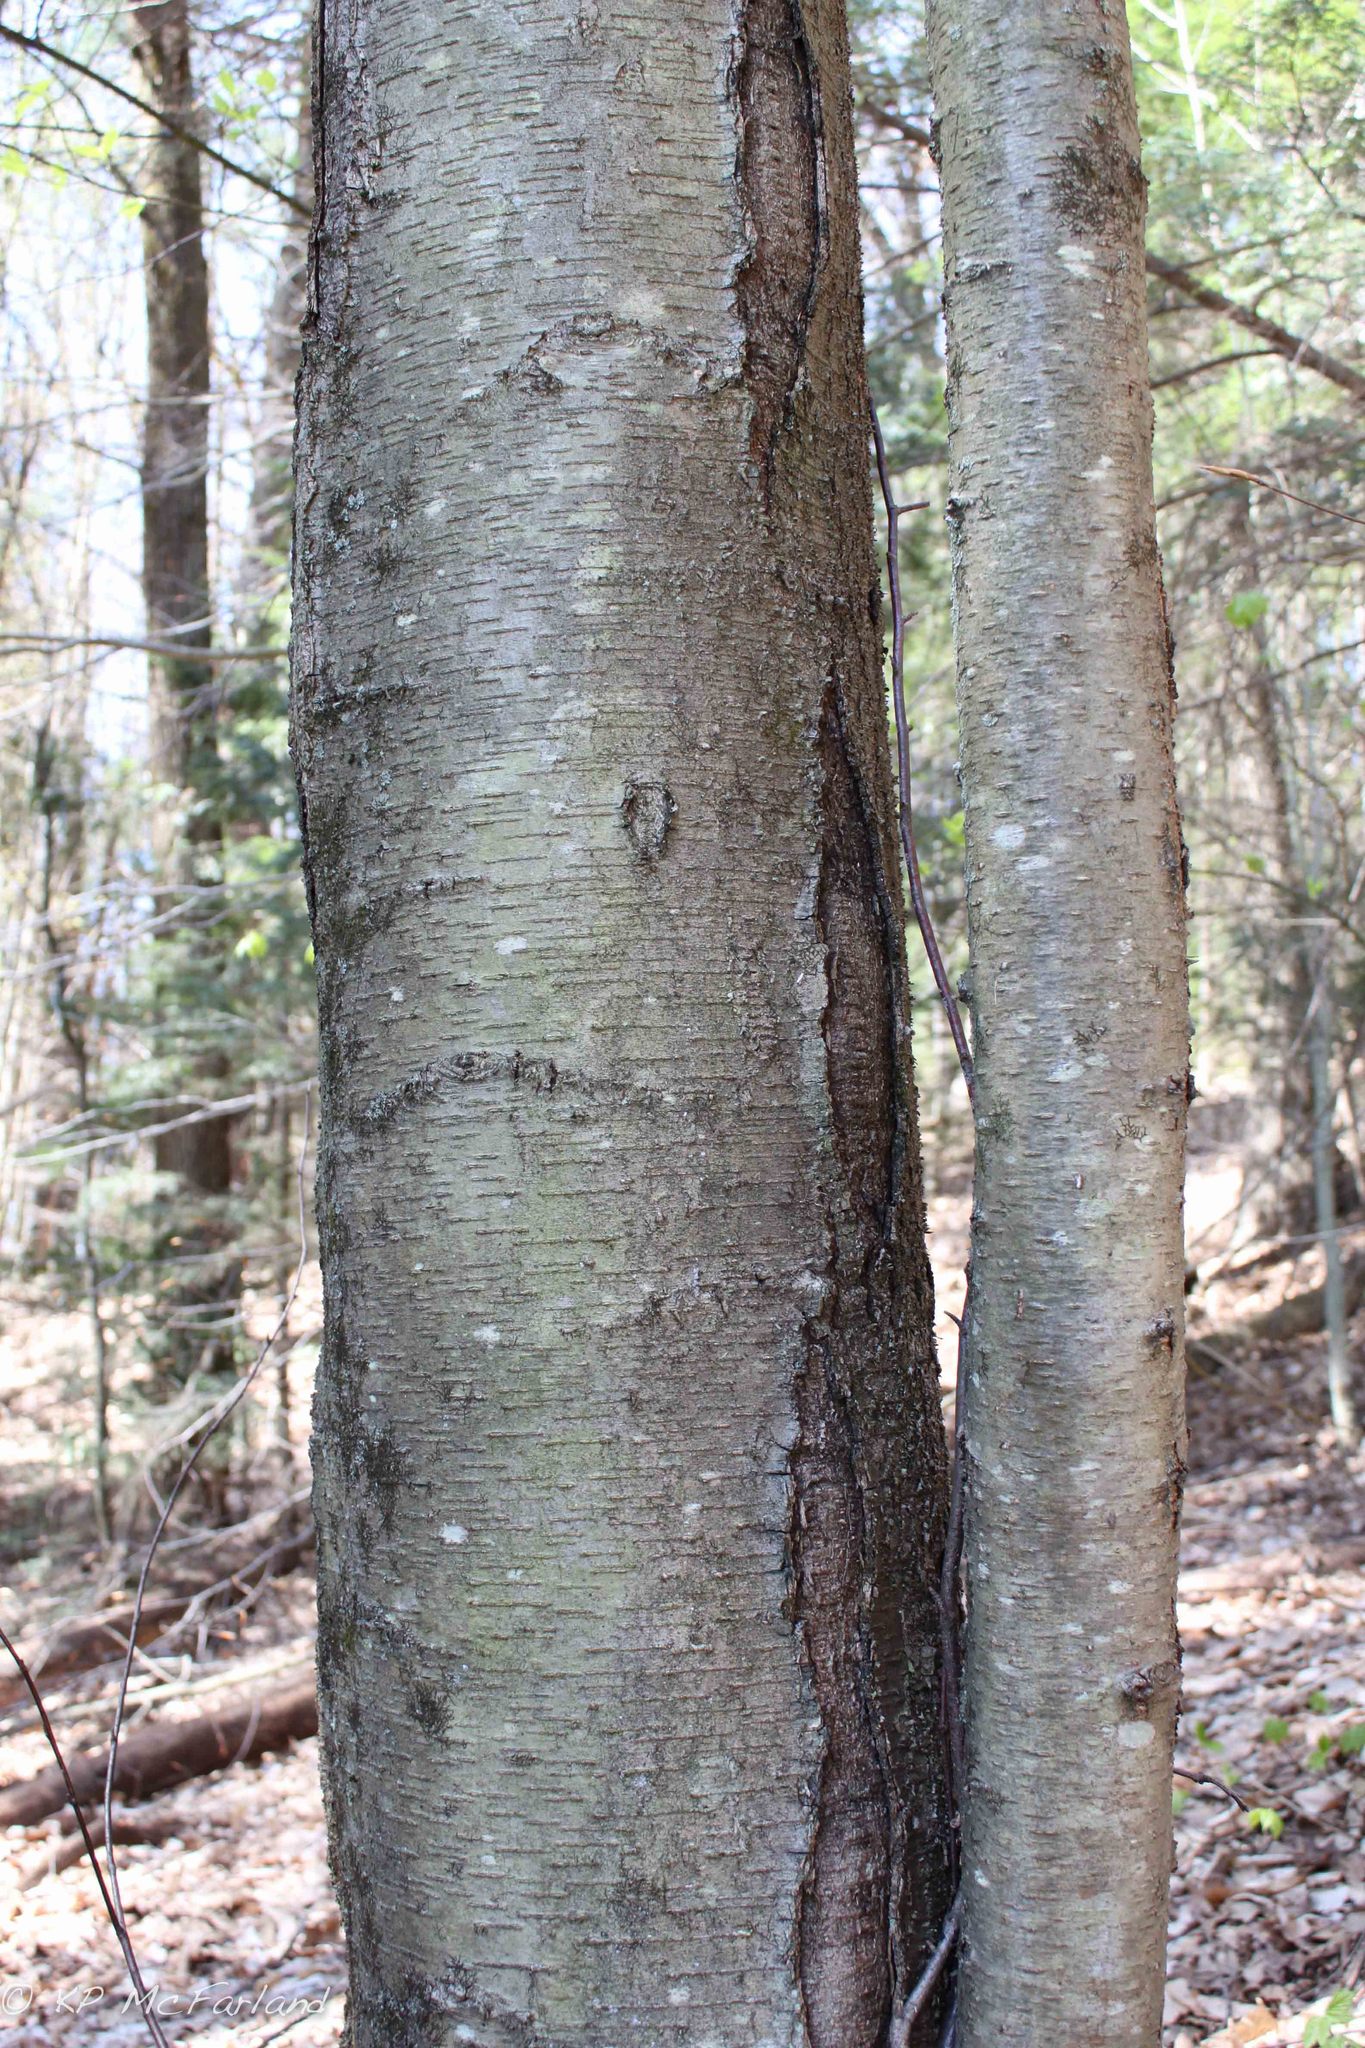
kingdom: Plantae
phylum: Tracheophyta
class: Magnoliopsida
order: Fagales
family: Betulaceae
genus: Betula
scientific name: Betula lenta
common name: Black birch
